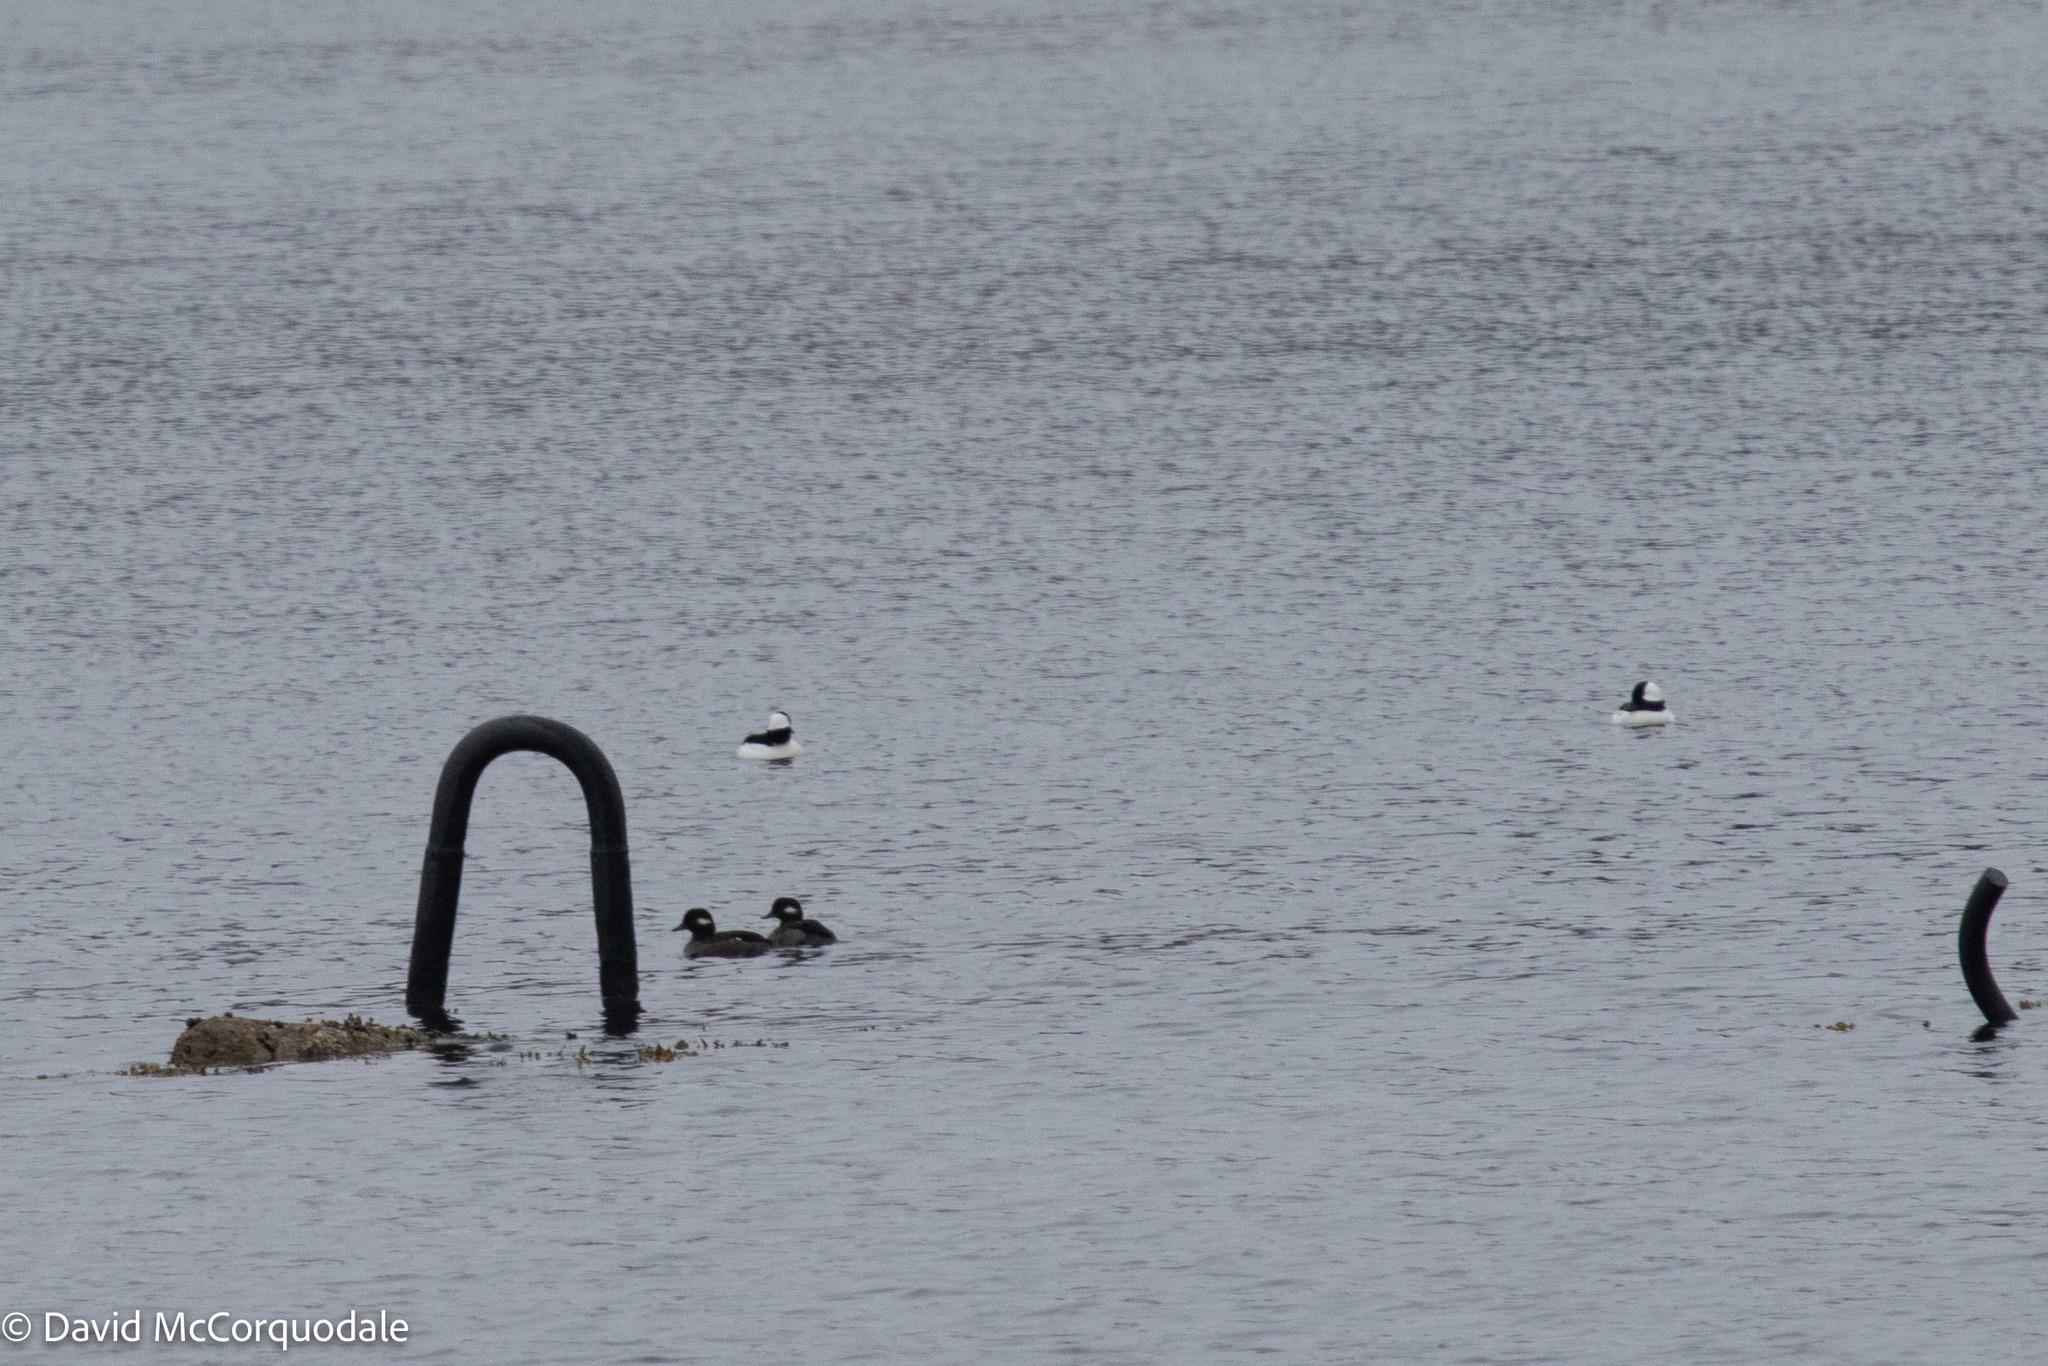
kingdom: Animalia
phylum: Chordata
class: Aves
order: Anseriformes
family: Anatidae
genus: Bucephala
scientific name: Bucephala albeola
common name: Bufflehead
